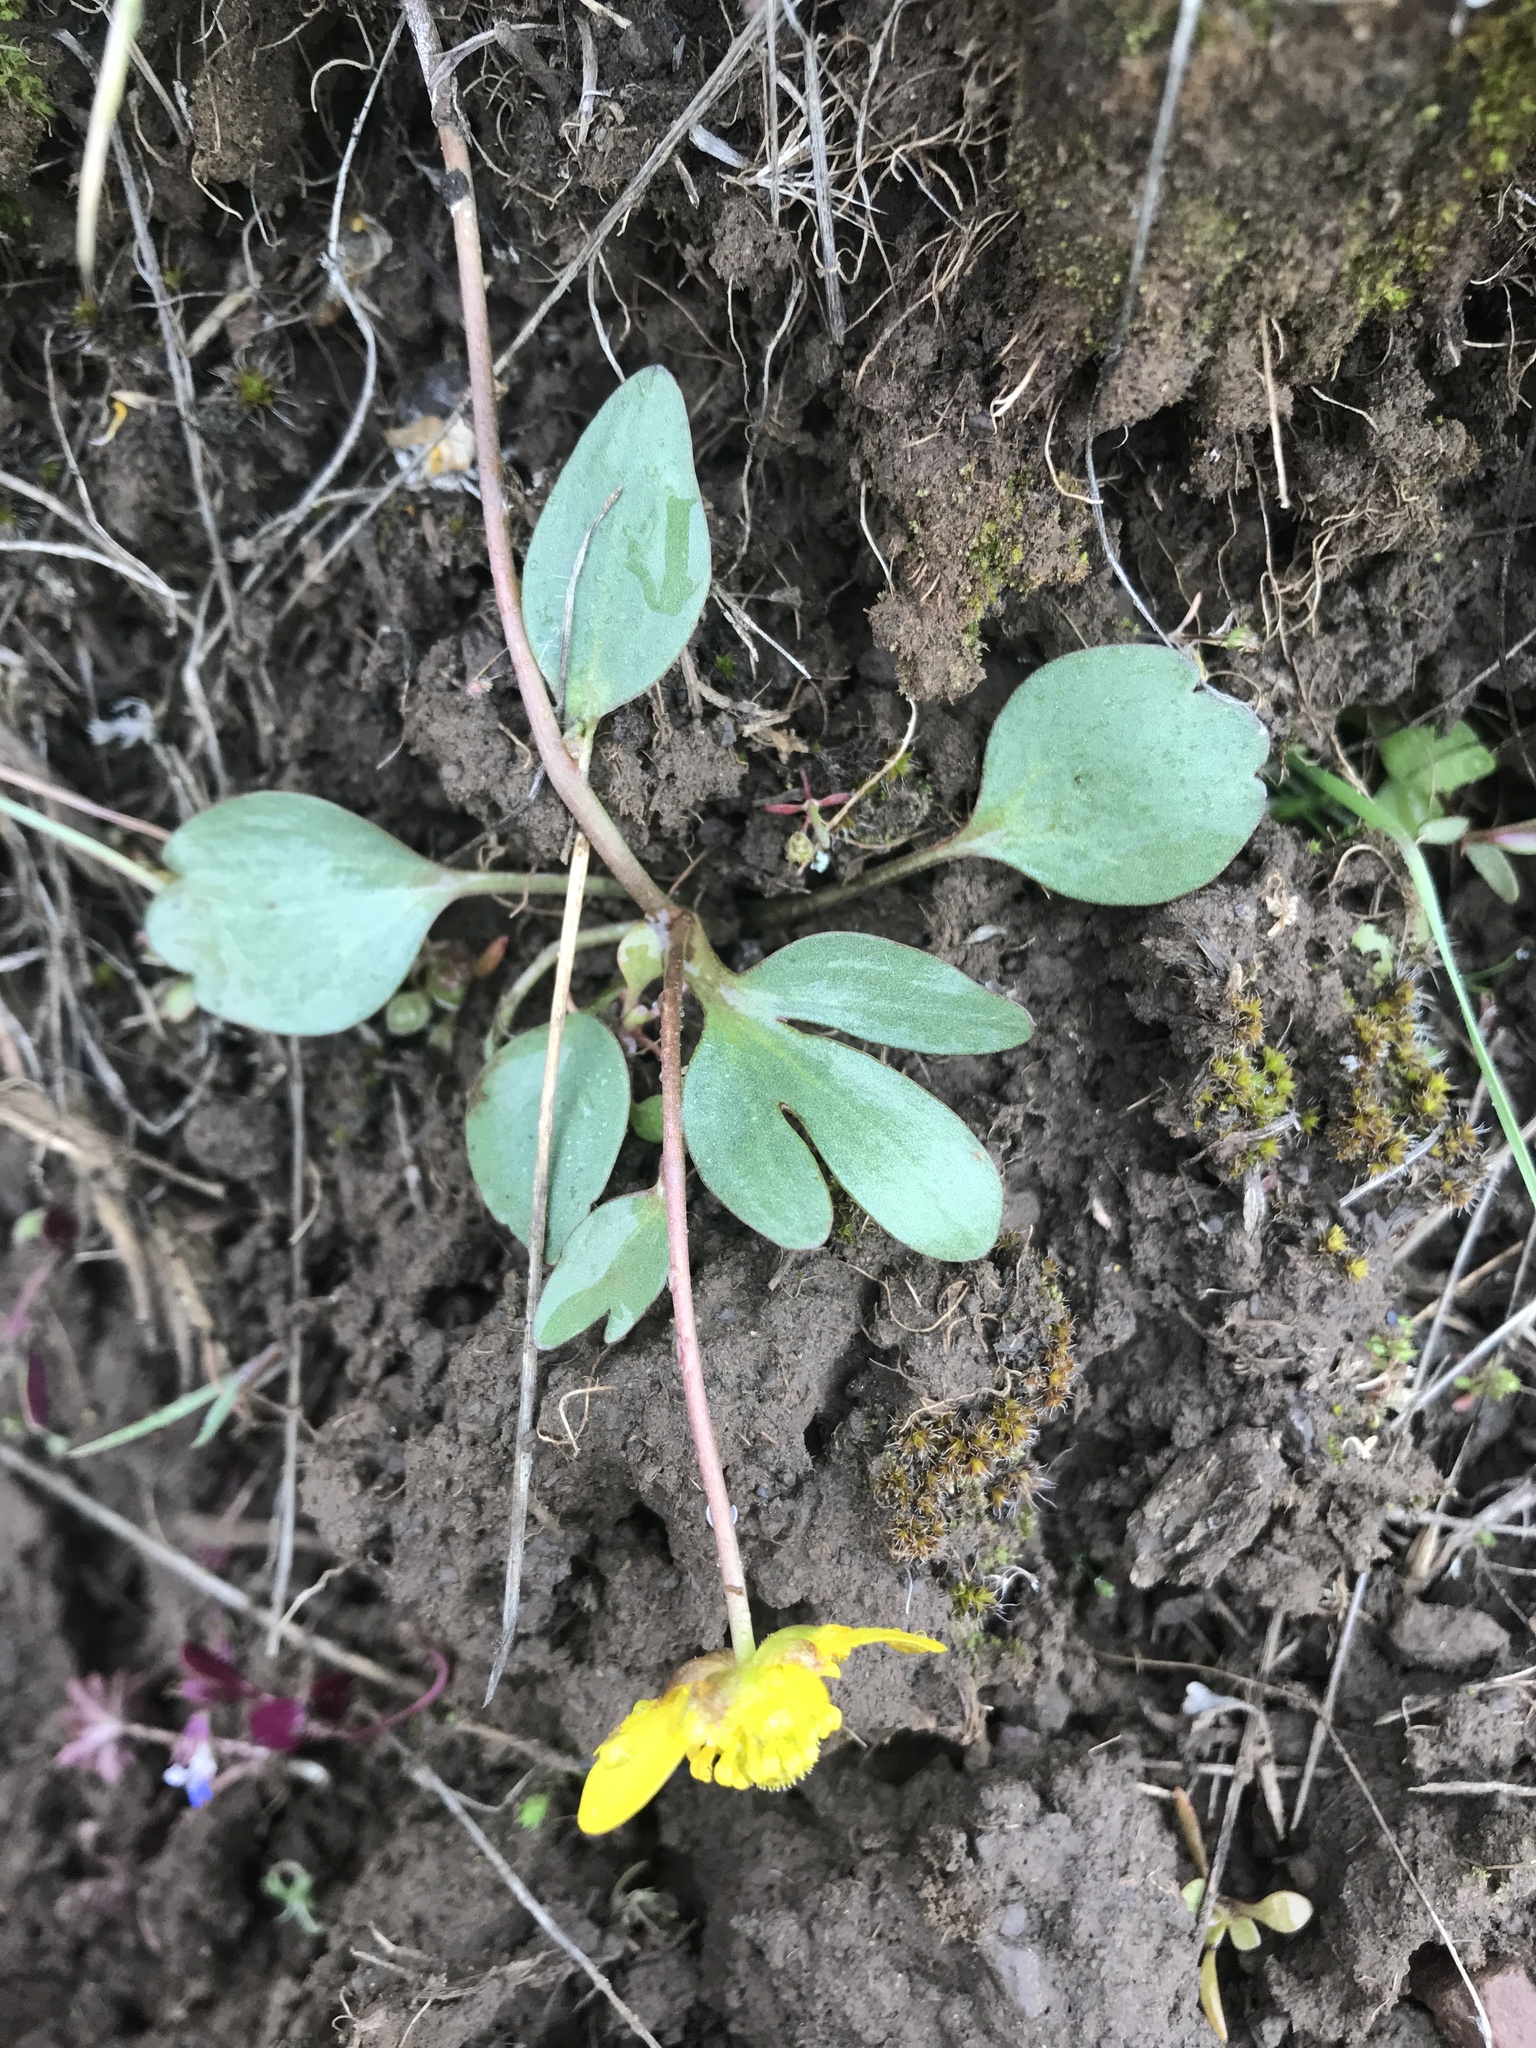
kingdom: Plantae
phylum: Tracheophyta
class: Magnoliopsida
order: Ranunculales
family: Ranunculaceae
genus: Ranunculus
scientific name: Ranunculus glaberrimus
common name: Sagebrush buttercup
